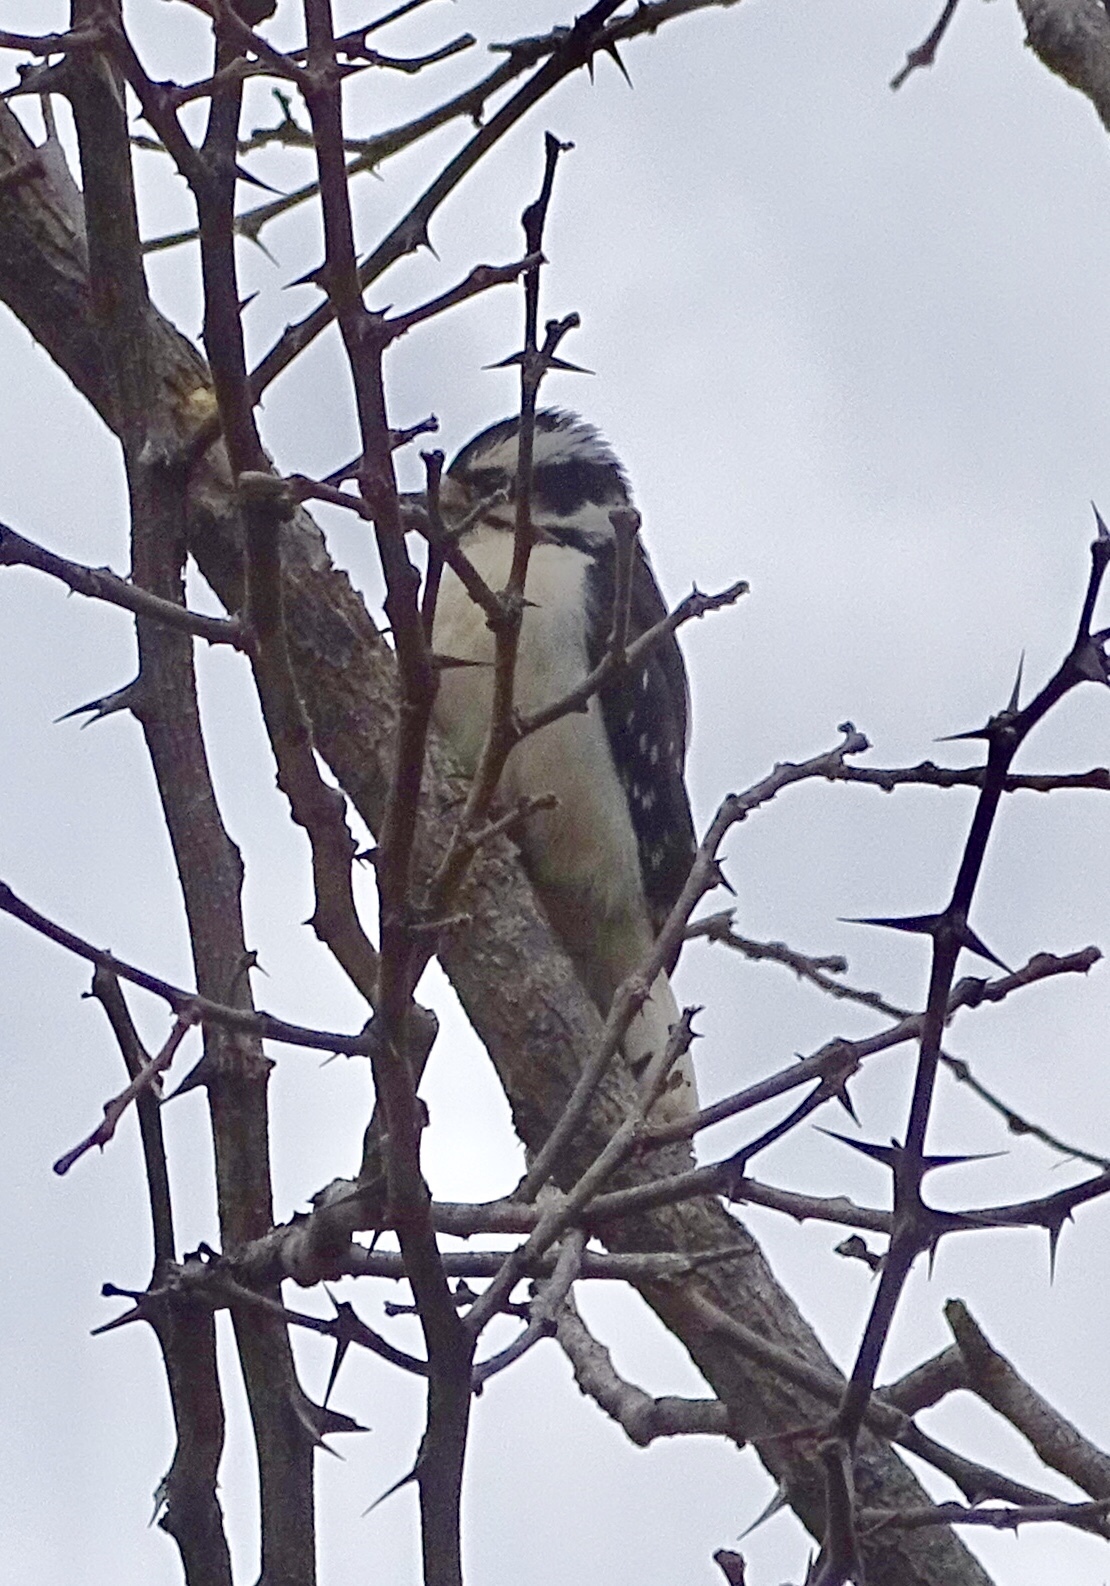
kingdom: Animalia
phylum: Chordata
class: Aves
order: Piciformes
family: Picidae
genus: Dryobates
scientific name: Dryobates pubescens
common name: Downy woodpecker
